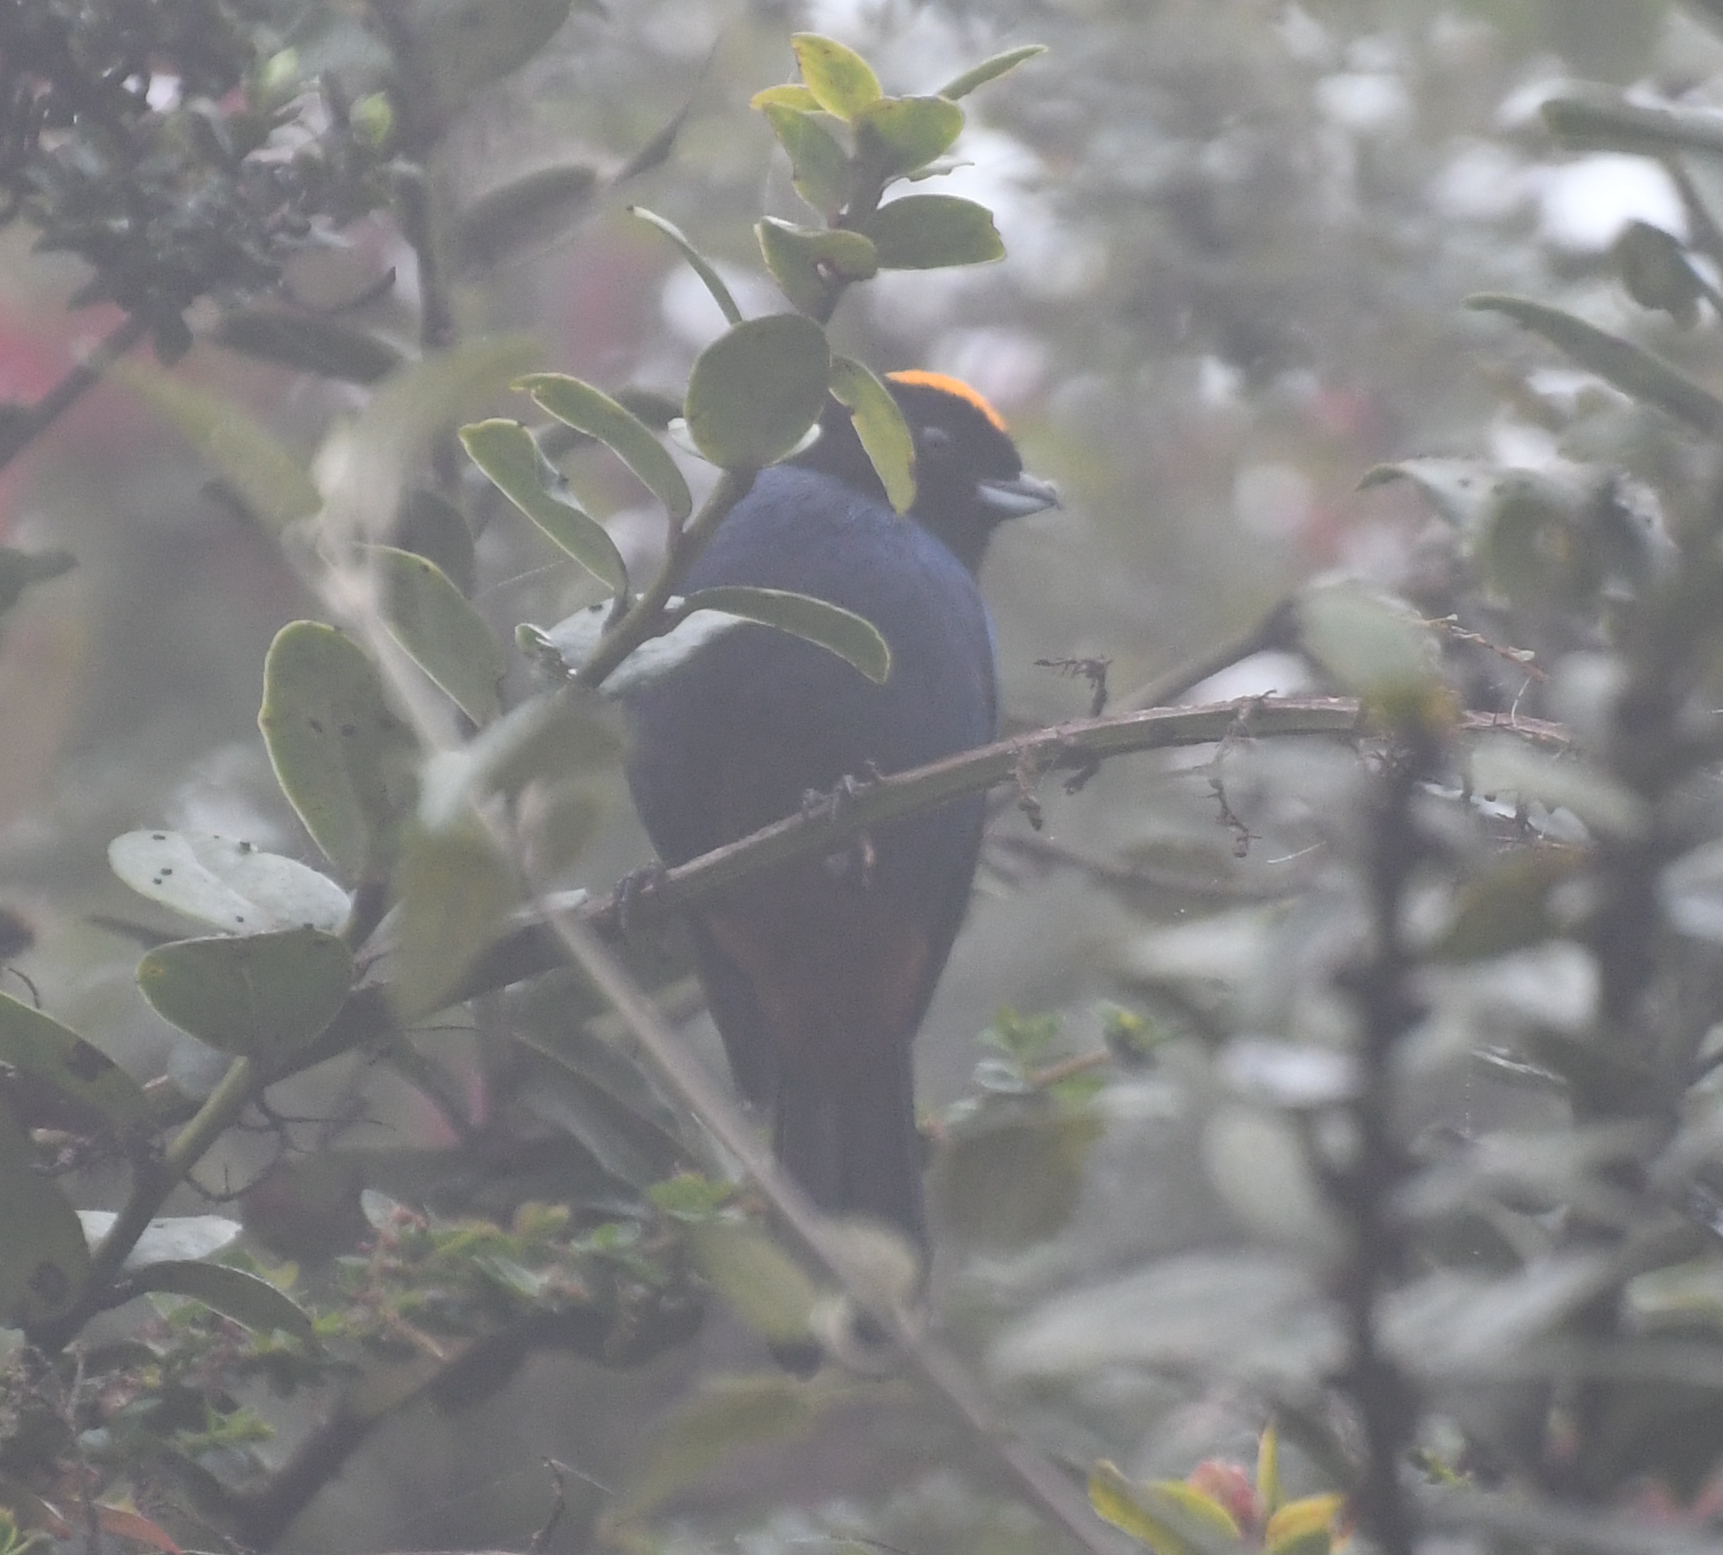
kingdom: Animalia
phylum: Chordata
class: Aves
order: Passeriformes
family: Thraupidae
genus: Iridosornis
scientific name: Iridosornis rufivertex
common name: Golden-crowned tanager
